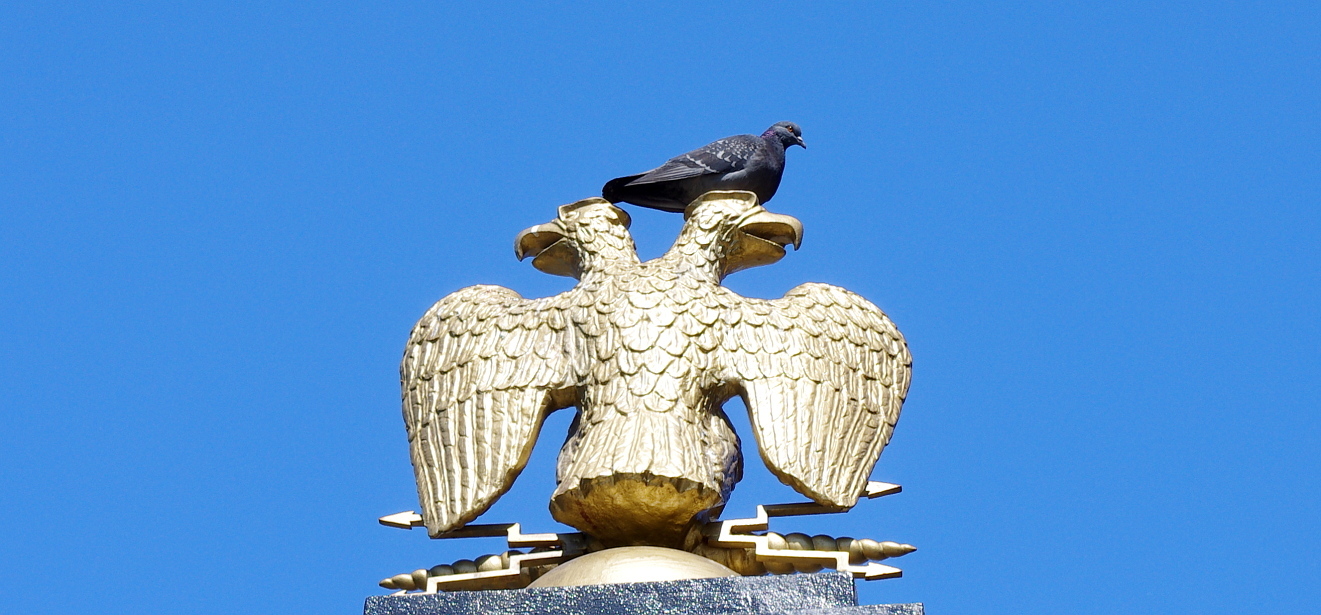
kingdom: Animalia
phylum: Chordata
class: Aves
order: Columbiformes
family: Columbidae
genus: Columba
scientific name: Columba livia
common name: Rock pigeon
